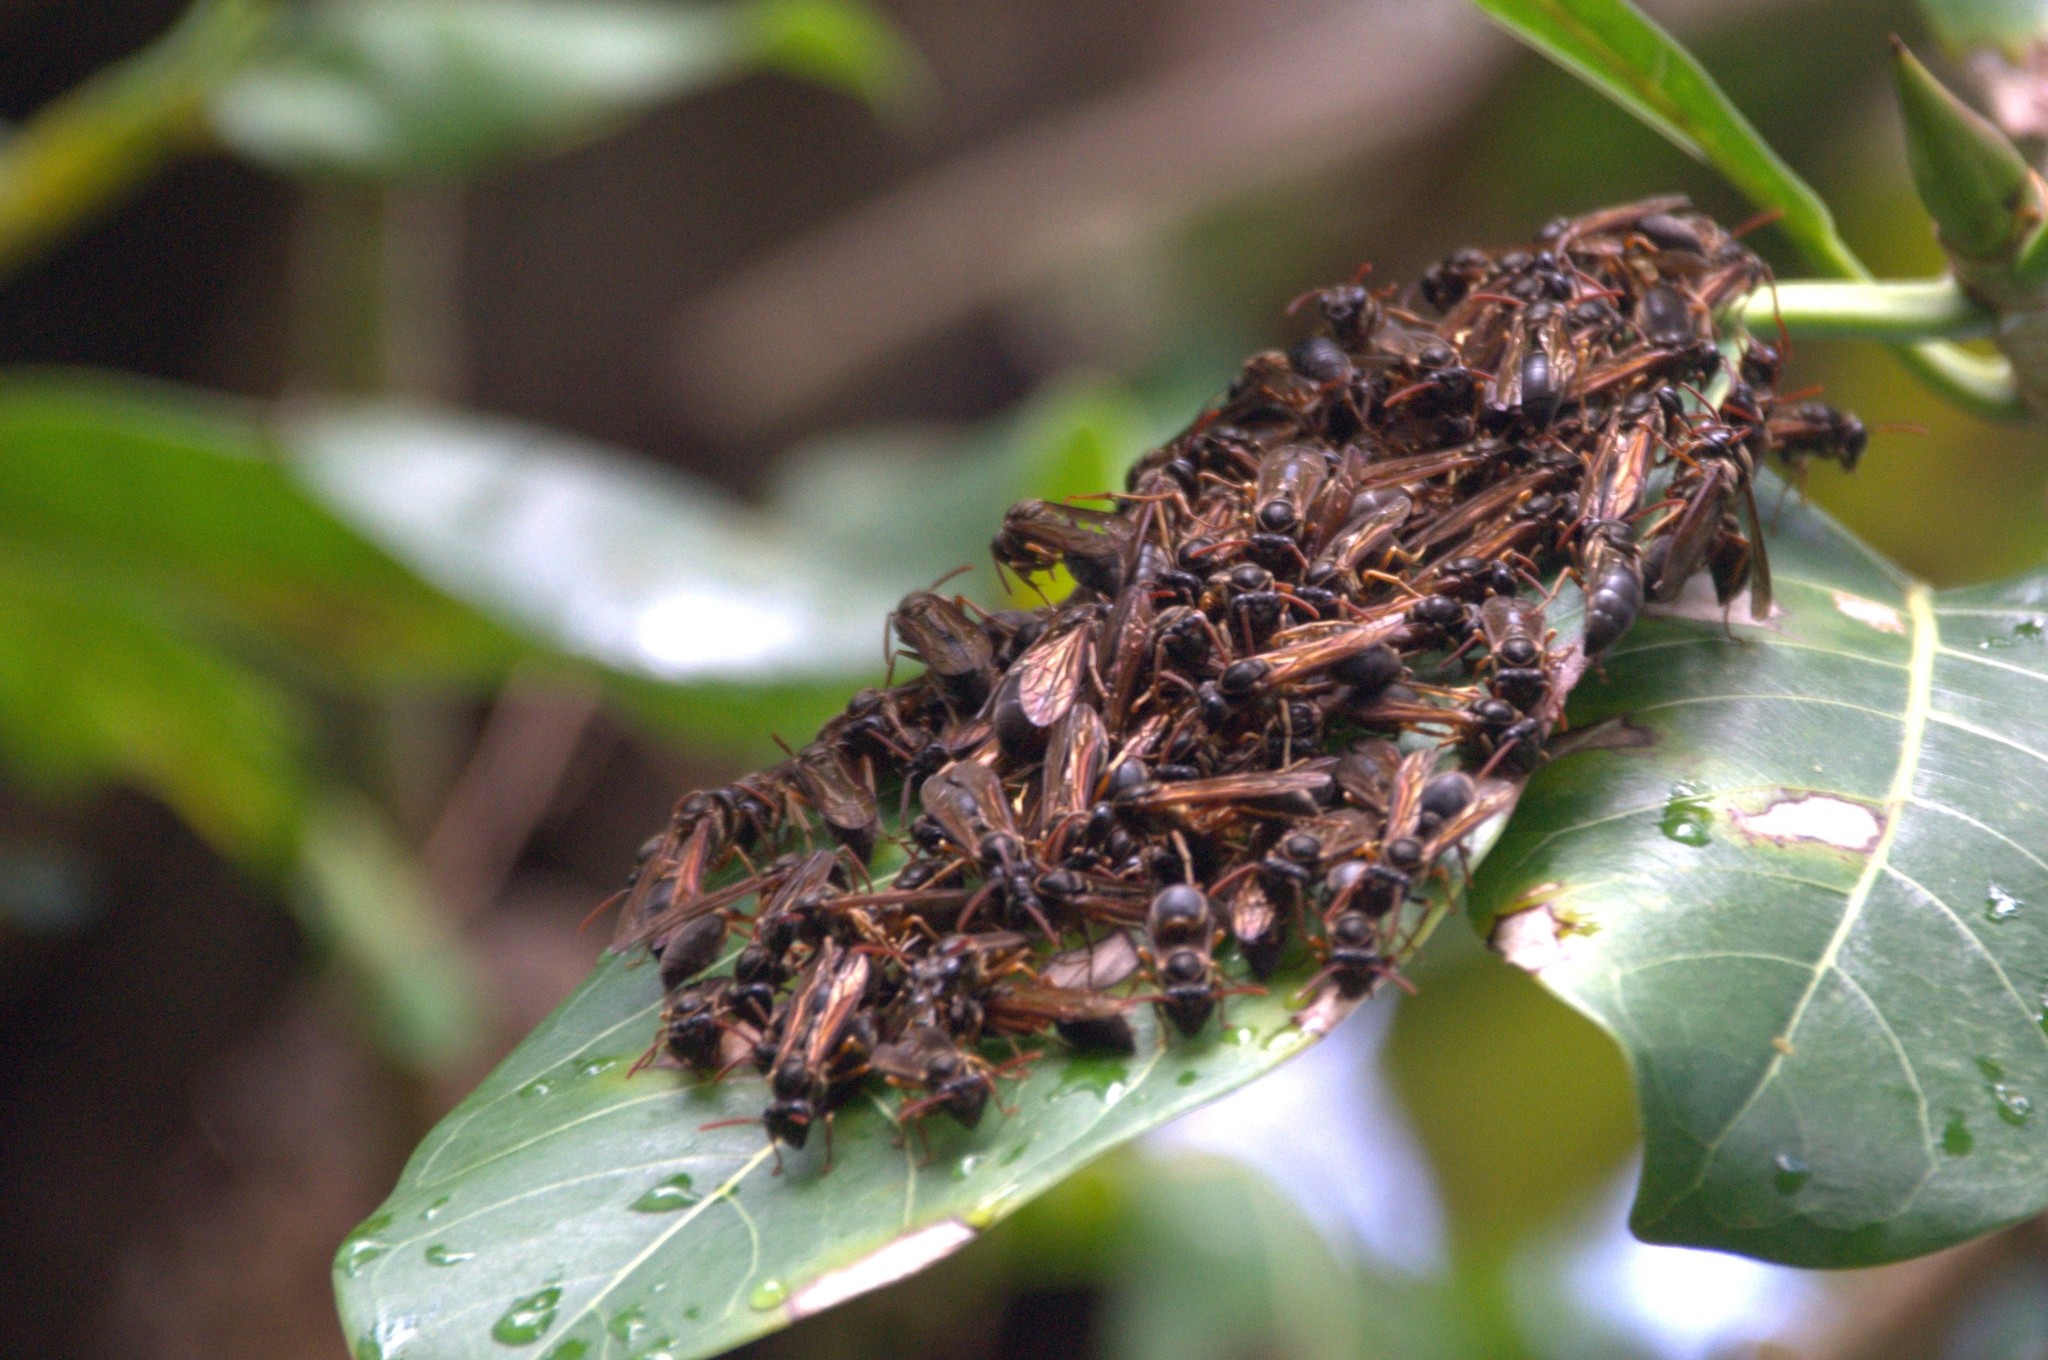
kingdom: Animalia
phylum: Arthropoda
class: Insecta
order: Hymenoptera
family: Eumenidae
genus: Polybia
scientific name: Polybia flavitincta
